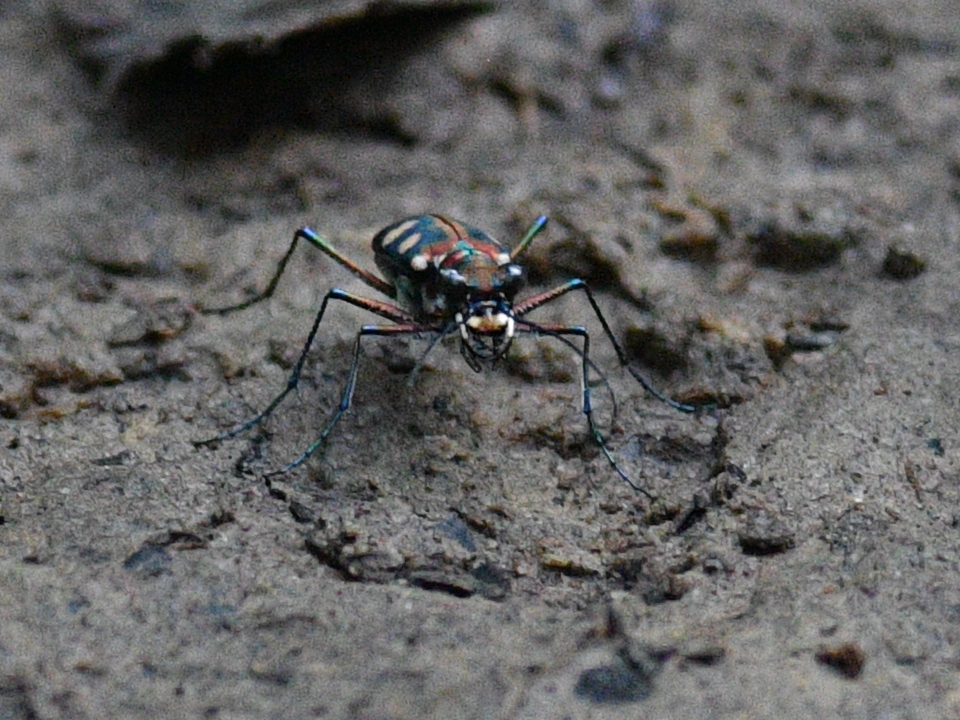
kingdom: Animalia
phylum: Arthropoda
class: Insecta
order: Coleoptera
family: Carabidae
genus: Cicindela
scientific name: Cicindela aurulenta
